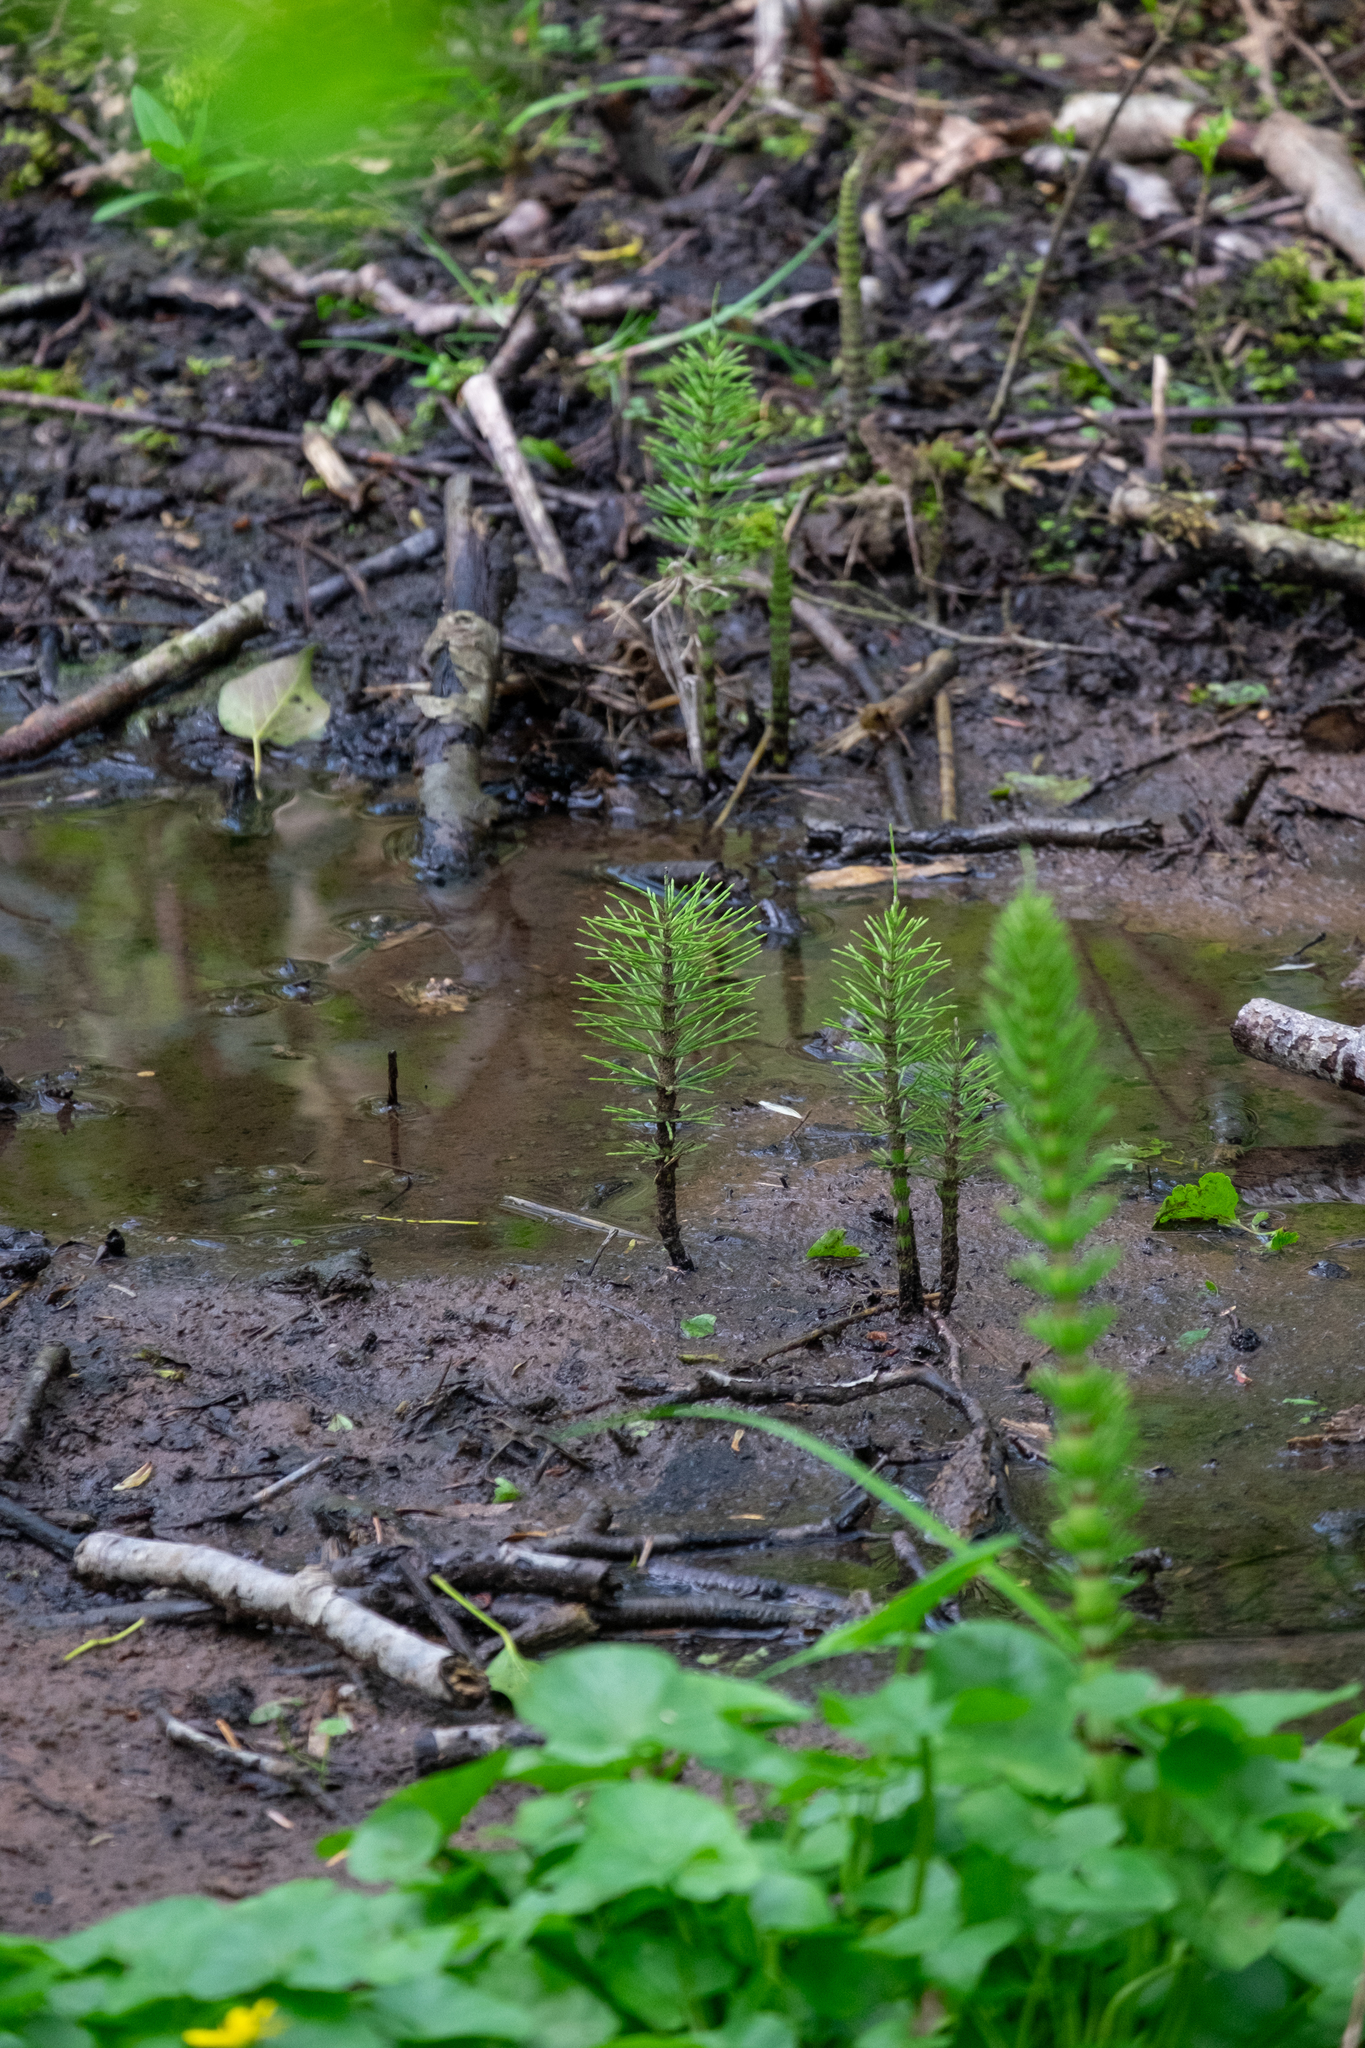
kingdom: Plantae
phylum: Tracheophyta
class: Polypodiopsida
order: Equisetales
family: Equisetaceae
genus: Equisetum
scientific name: Equisetum telmateia
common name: Great horsetail
